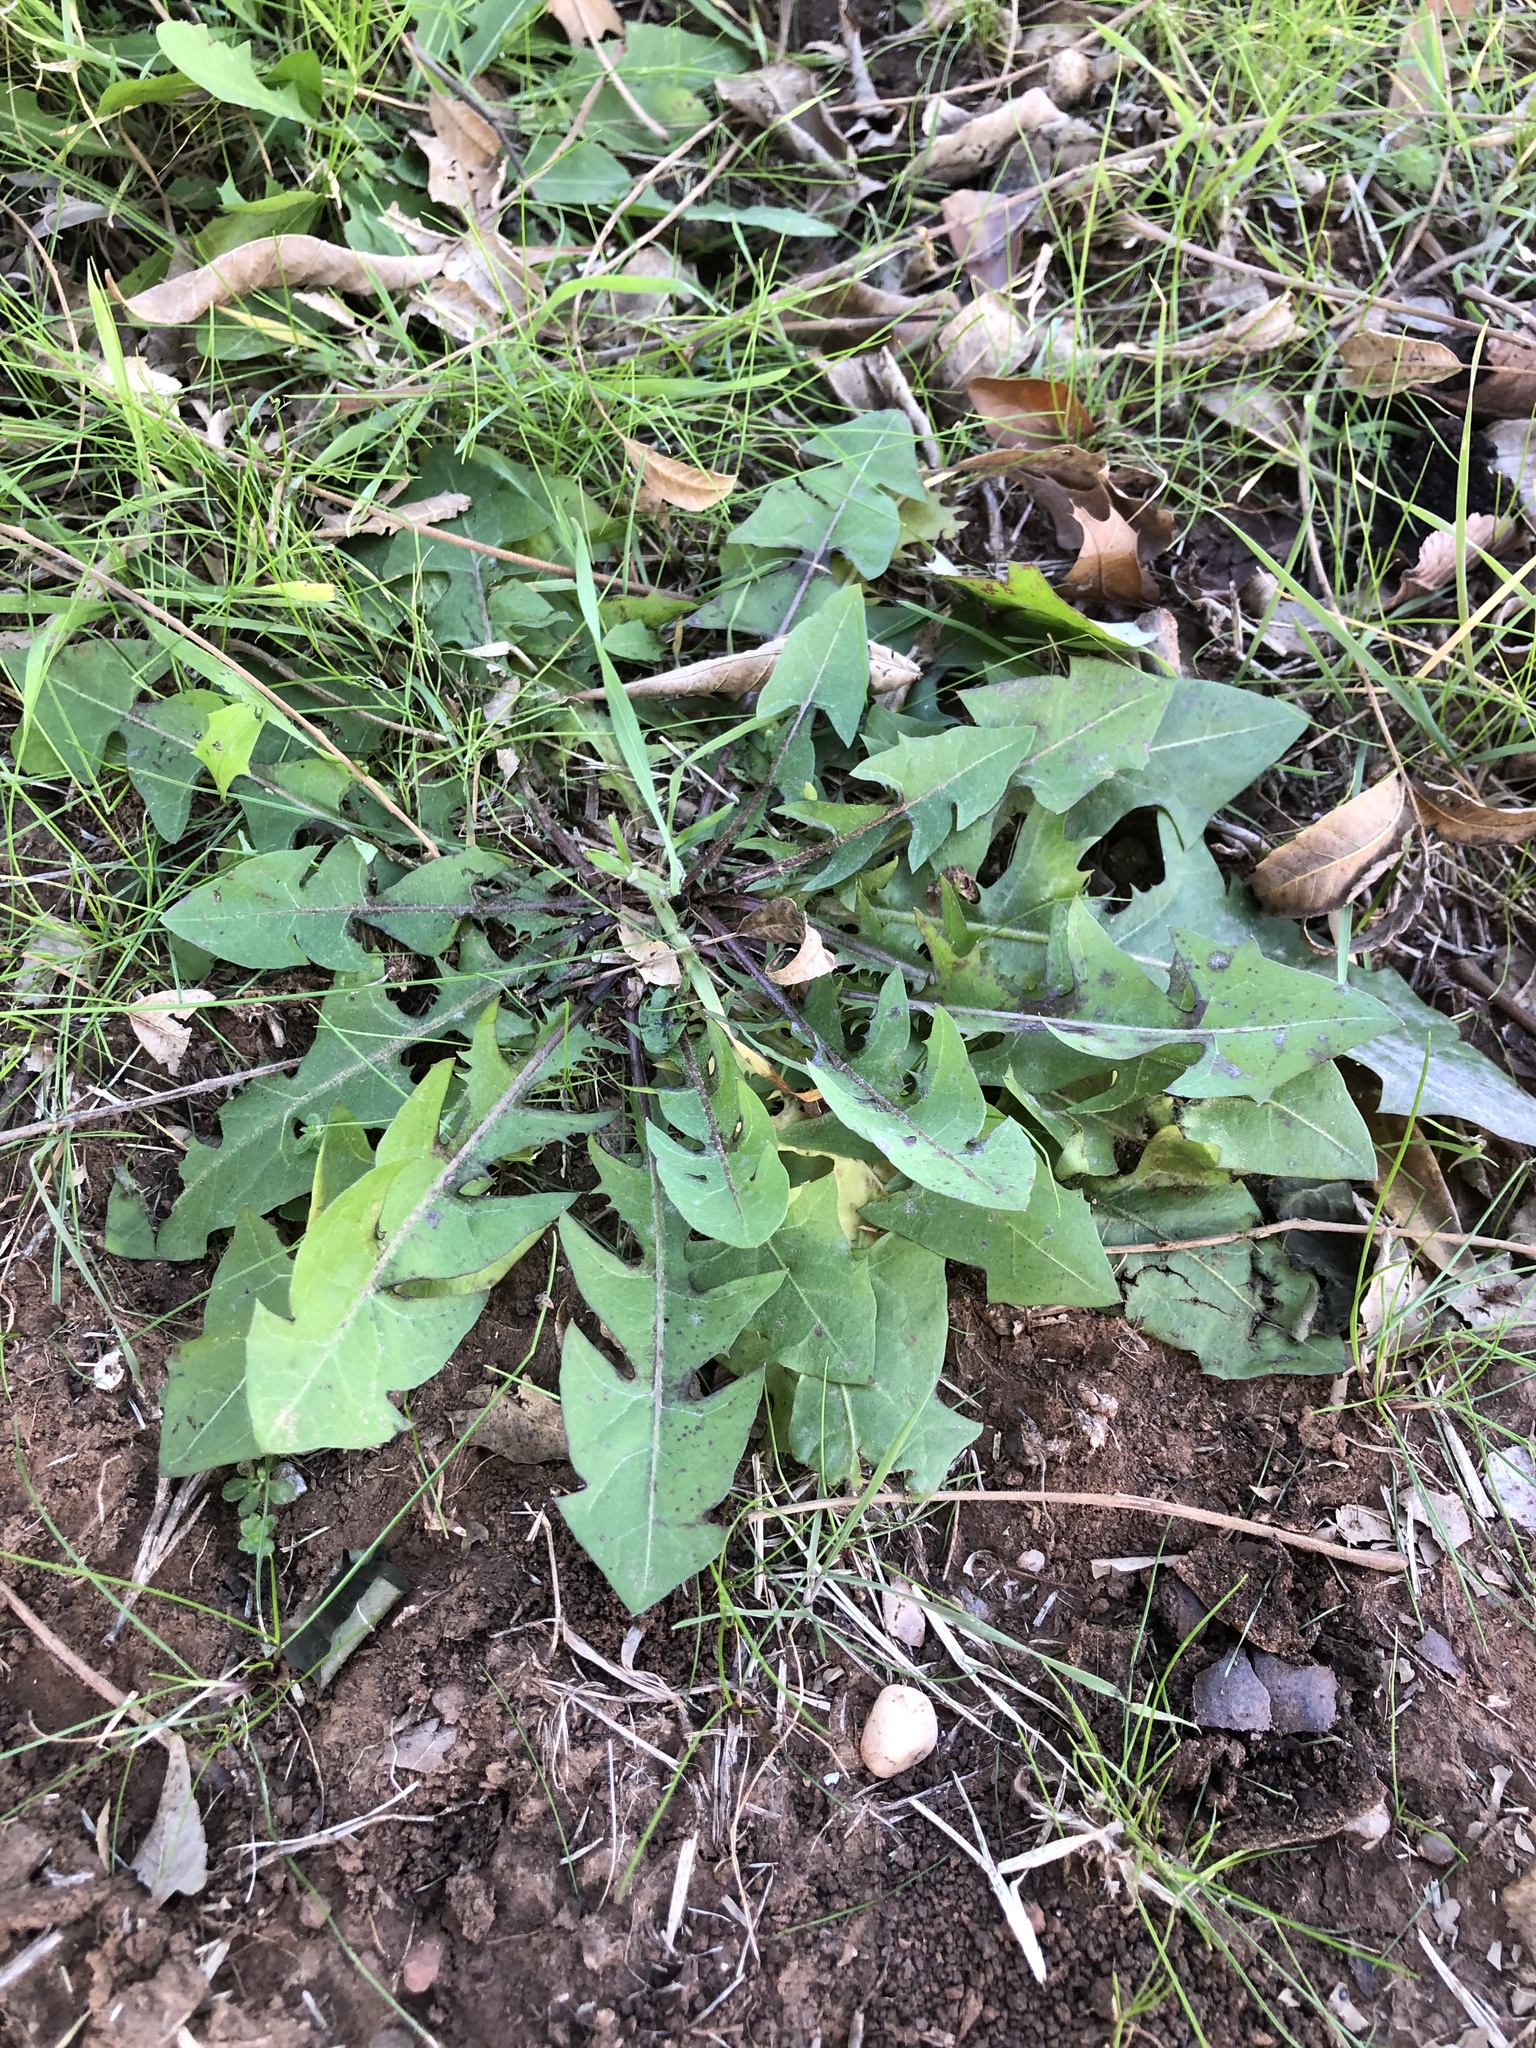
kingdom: Plantae
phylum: Tracheophyta
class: Magnoliopsida
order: Asterales
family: Asteraceae
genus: Taraxacum
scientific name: Taraxacum
